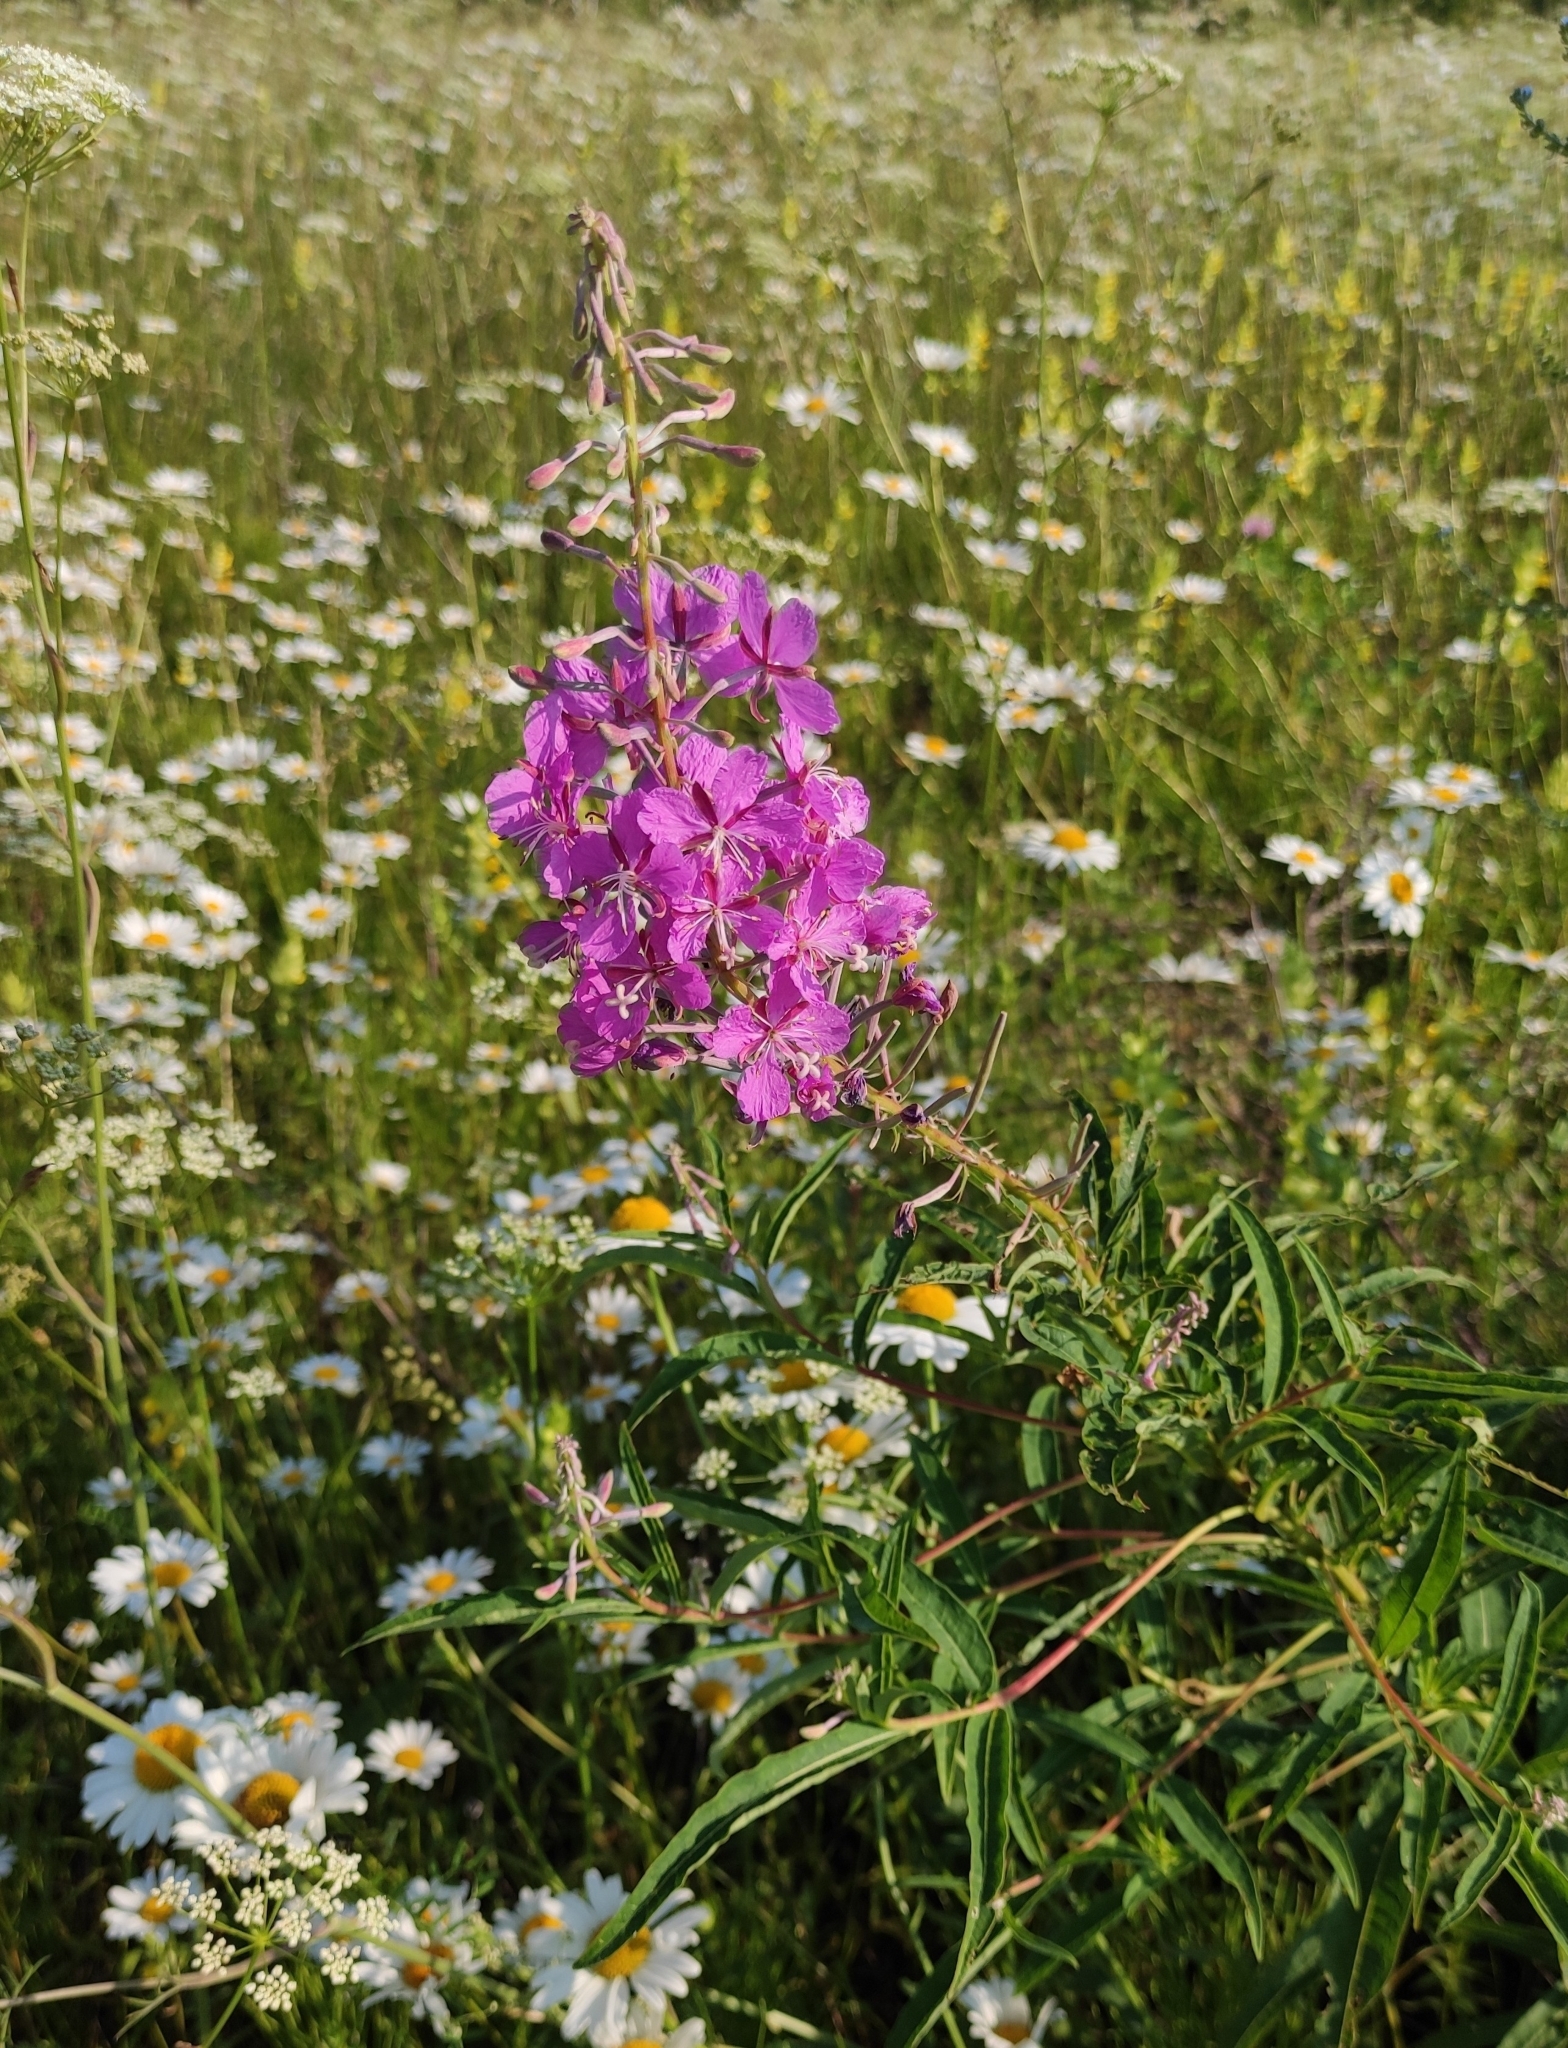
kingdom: Plantae
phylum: Tracheophyta
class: Magnoliopsida
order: Myrtales
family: Onagraceae
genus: Chamaenerion
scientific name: Chamaenerion angustifolium
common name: Fireweed
